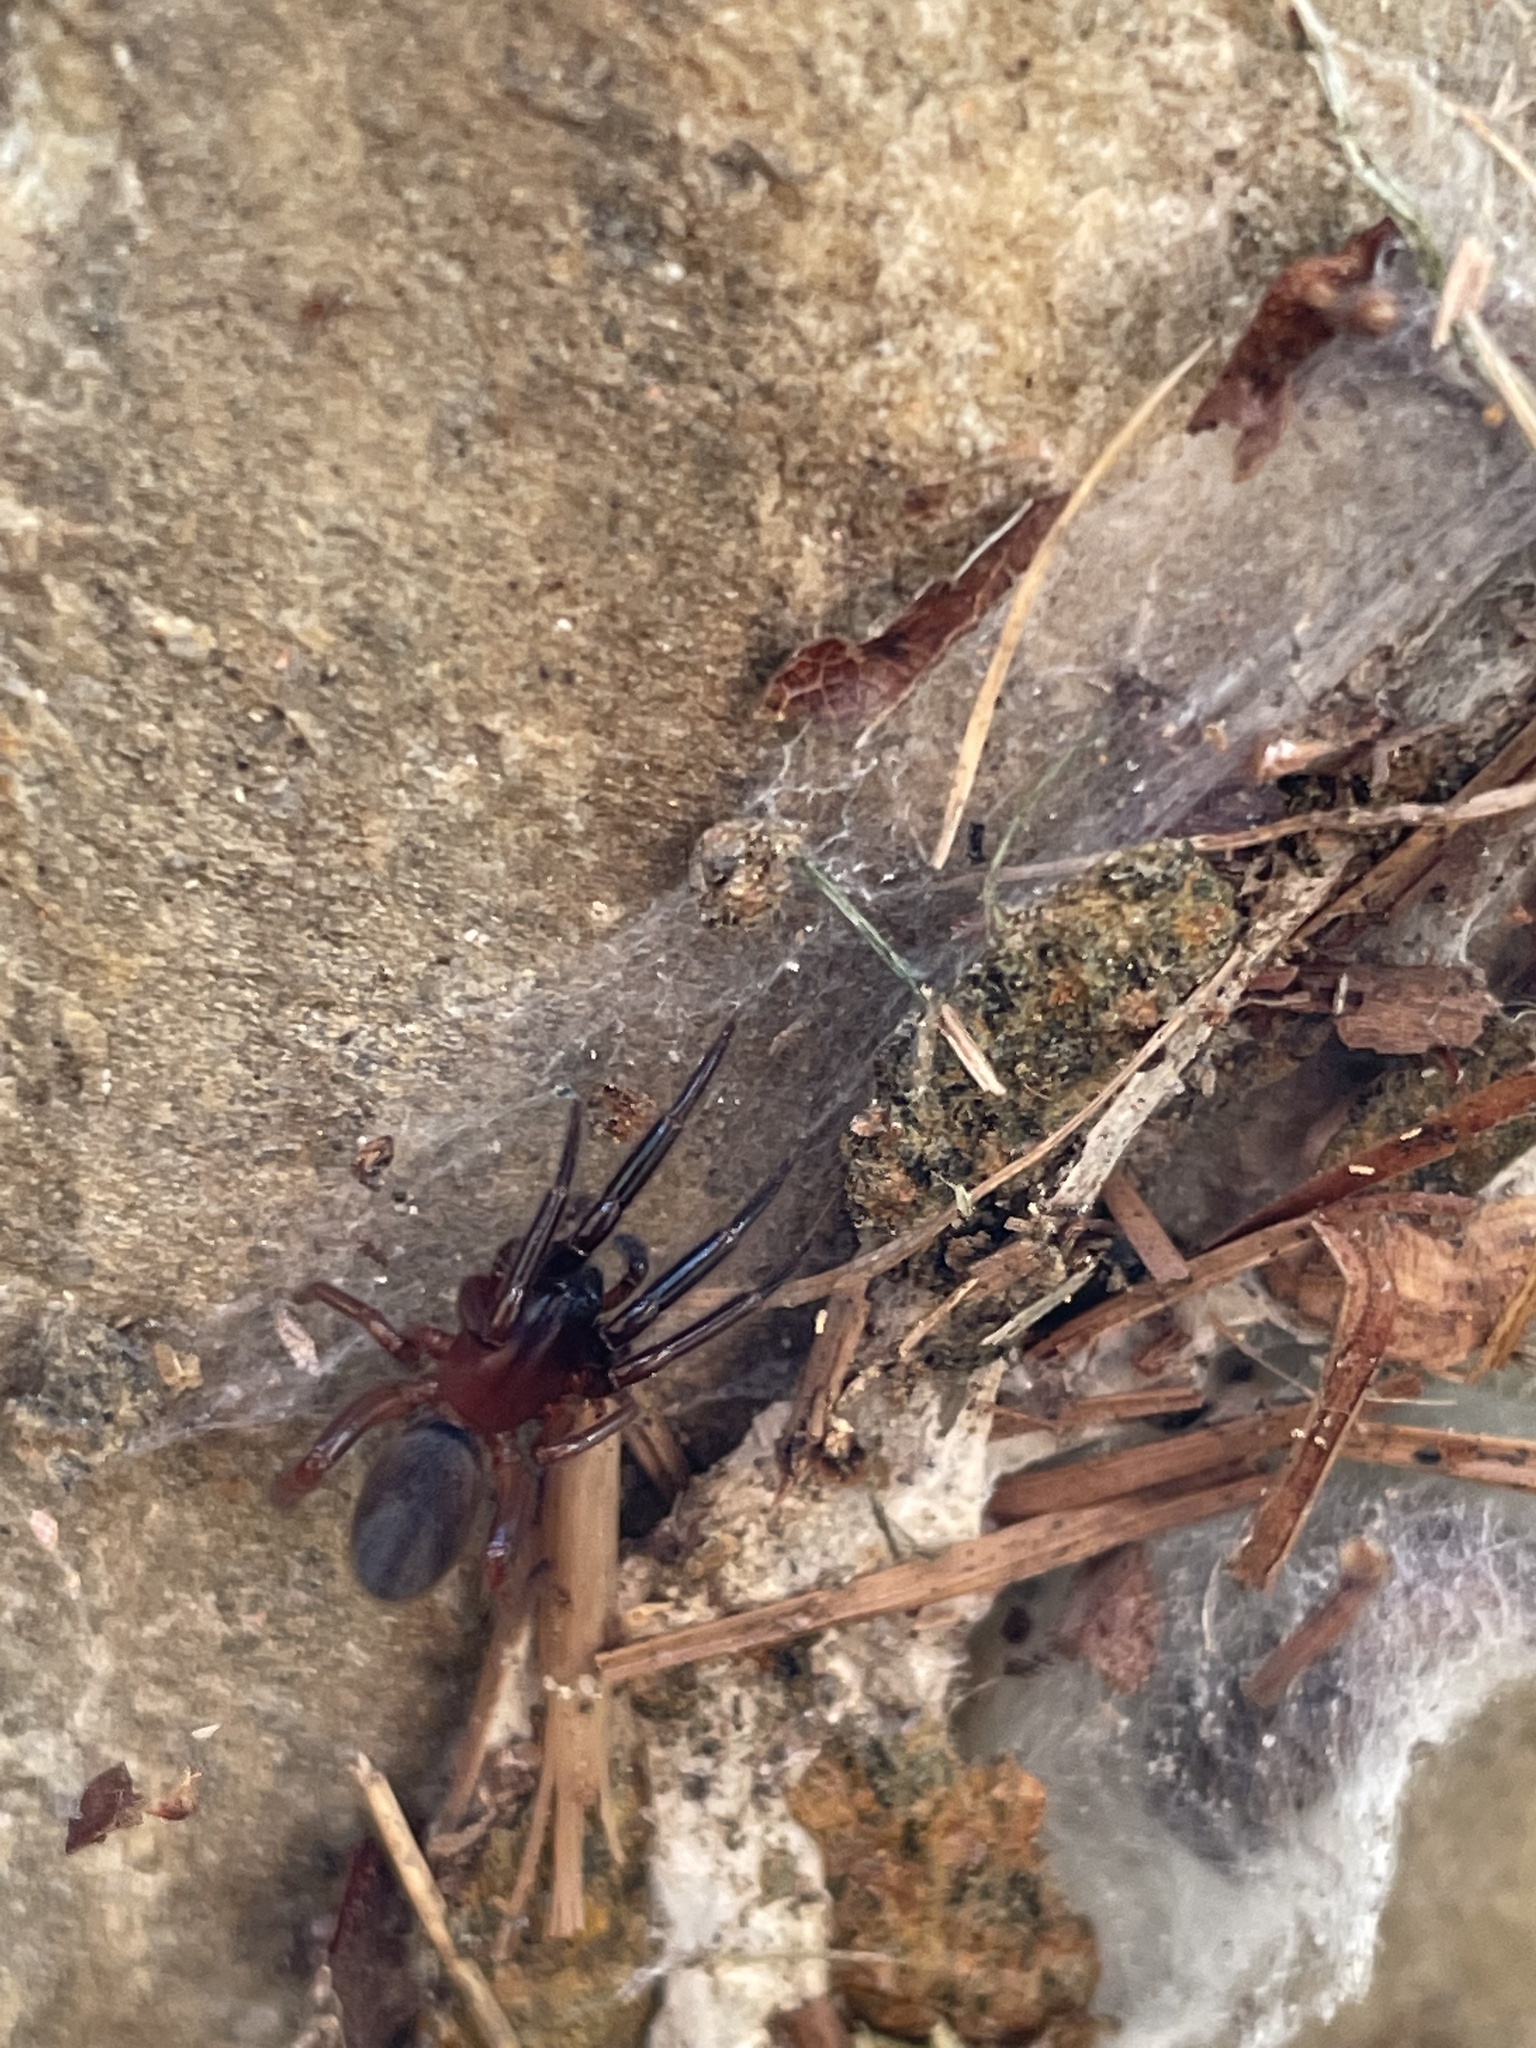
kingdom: Animalia
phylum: Arthropoda
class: Arachnida
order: Araneae
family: Segestriidae
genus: Ariadna
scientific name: Ariadna bicolor
